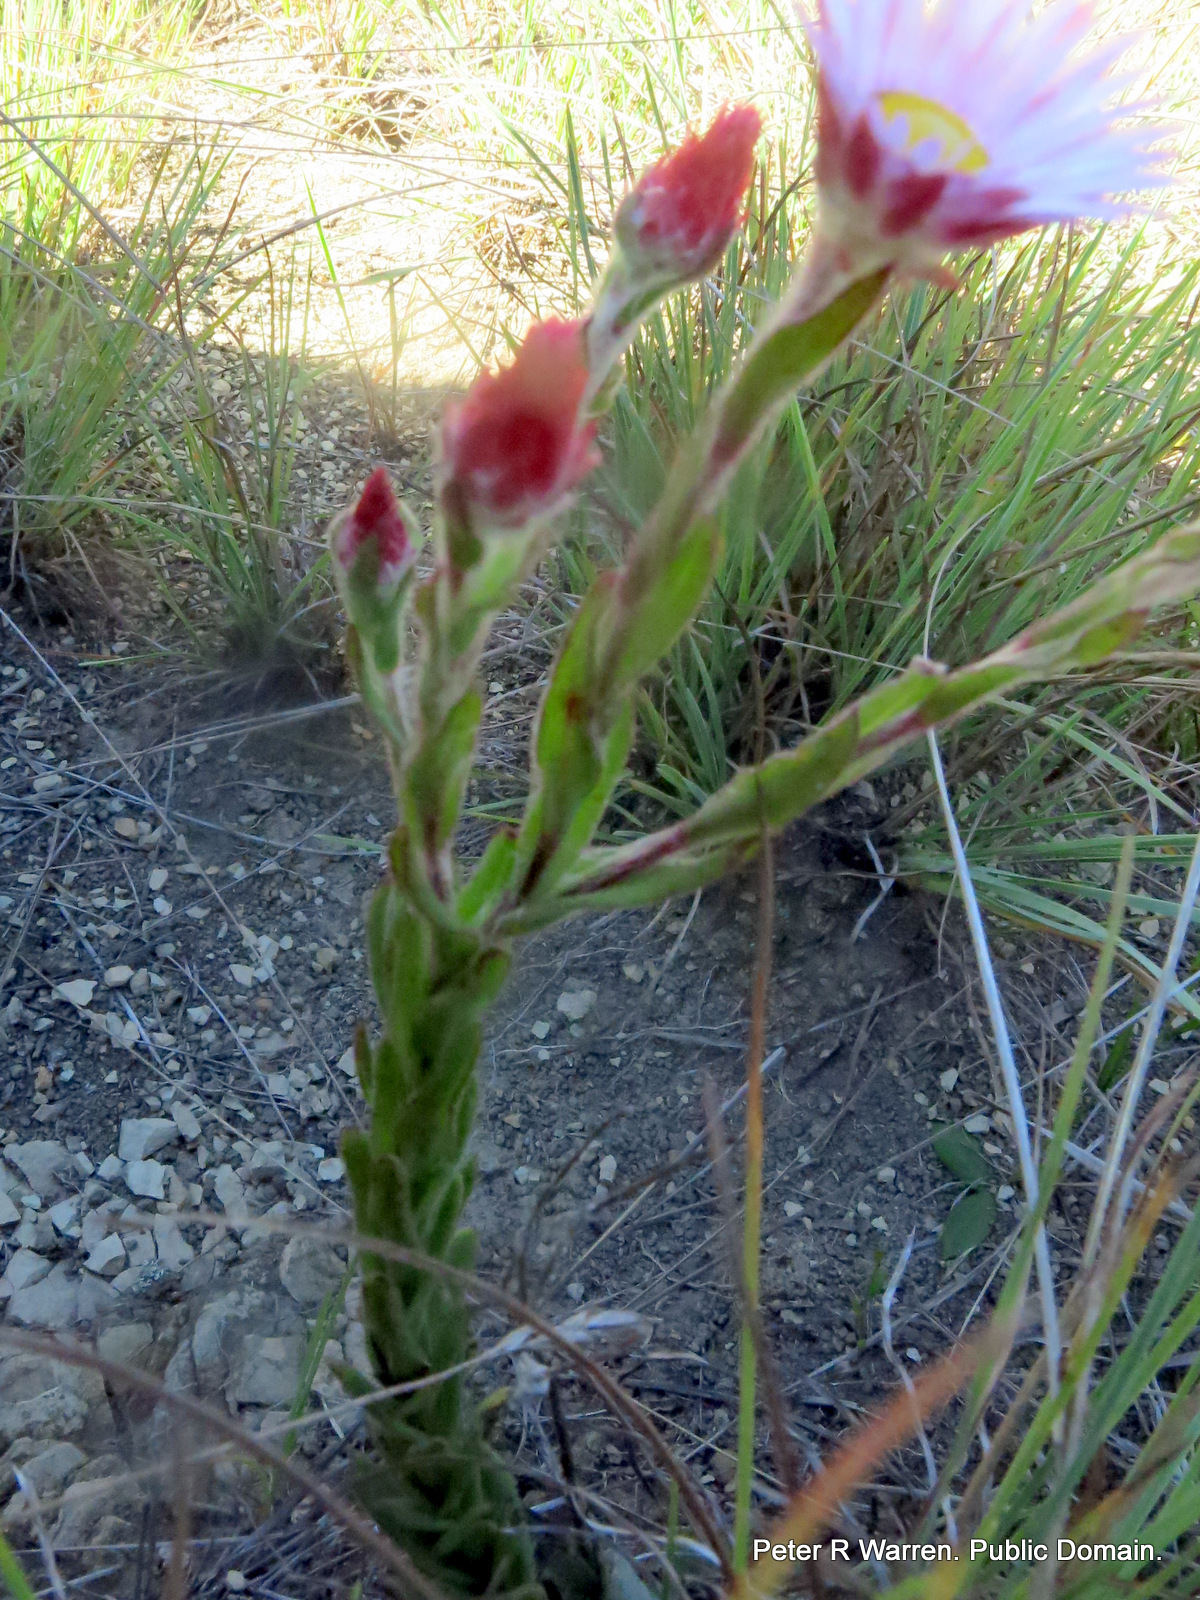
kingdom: Plantae
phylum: Tracheophyta
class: Magnoliopsida
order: Asterales
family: Asteraceae
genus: Helichrysum
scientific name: Helichrysum adenocarpum
